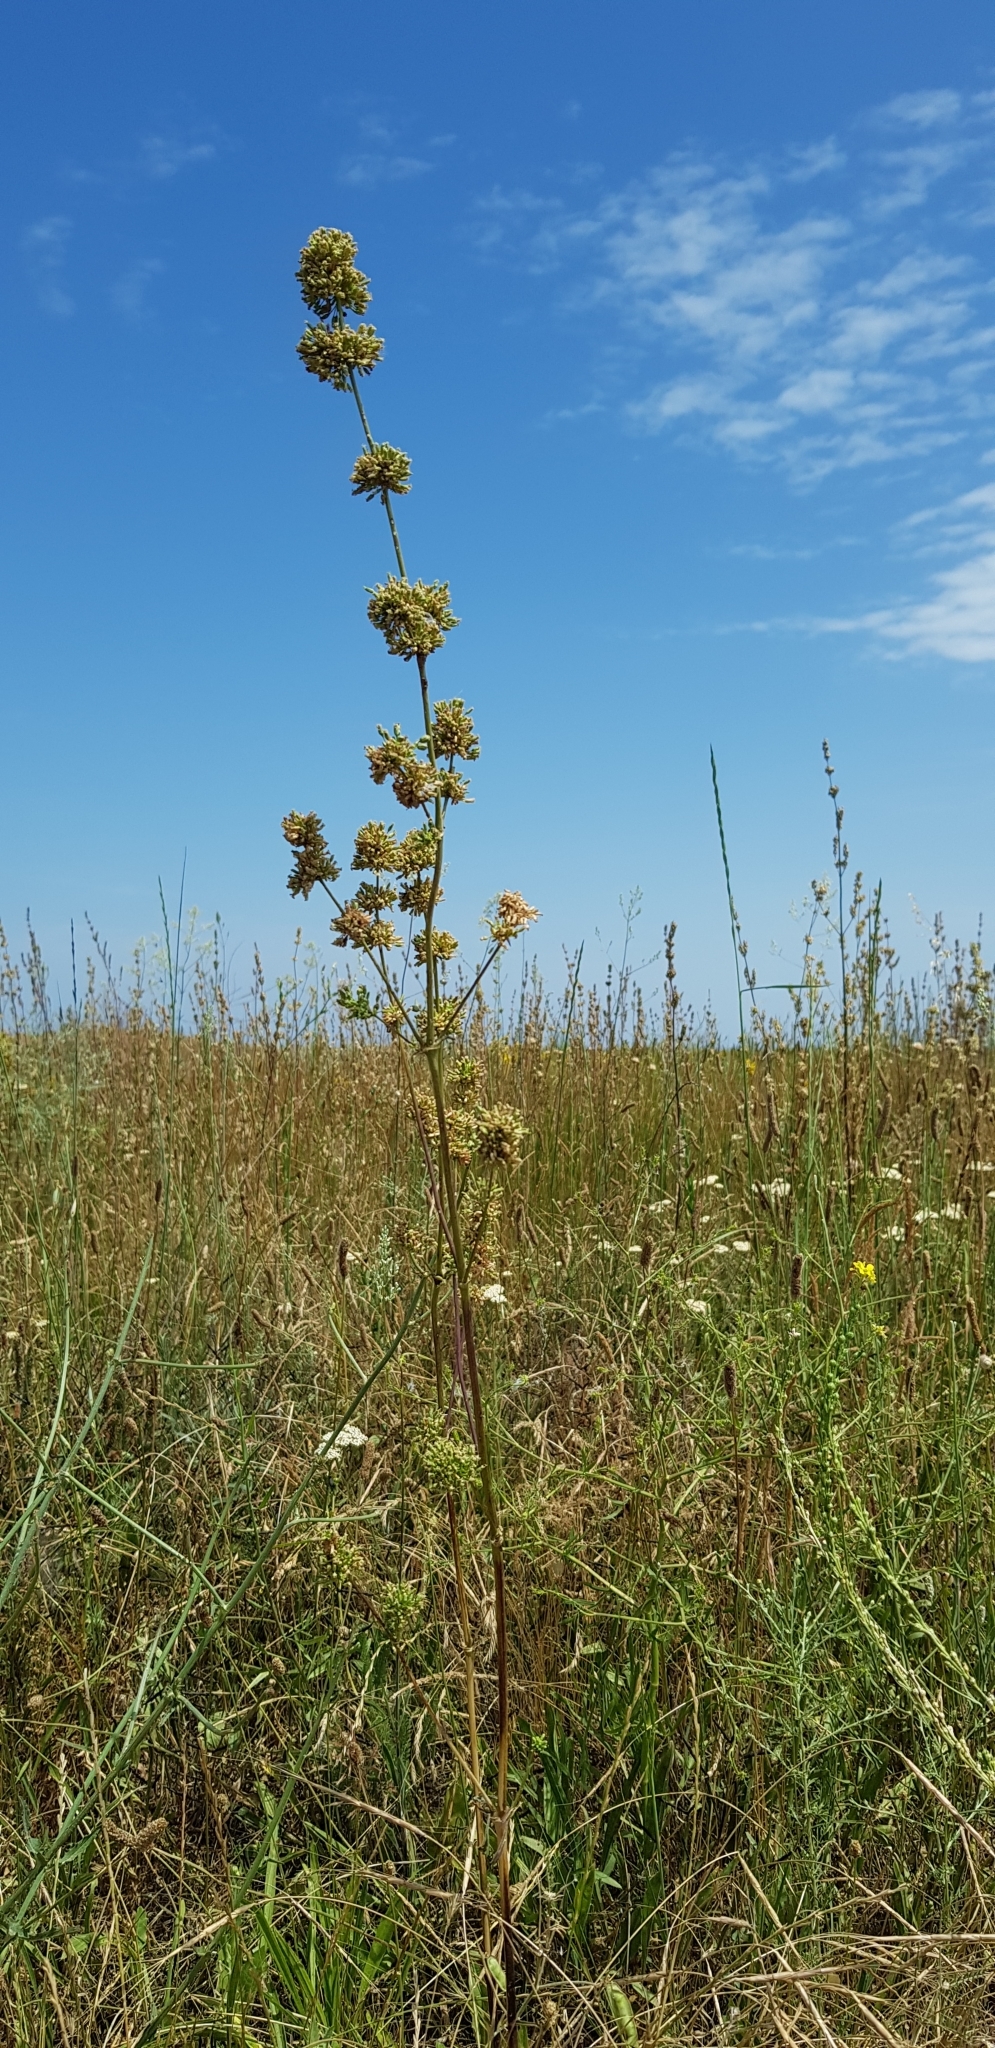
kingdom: Plantae
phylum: Tracheophyta
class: Magnoliopsida
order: Caryophyllales
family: Caryophyllaceae
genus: Silene
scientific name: Silene densiflora
